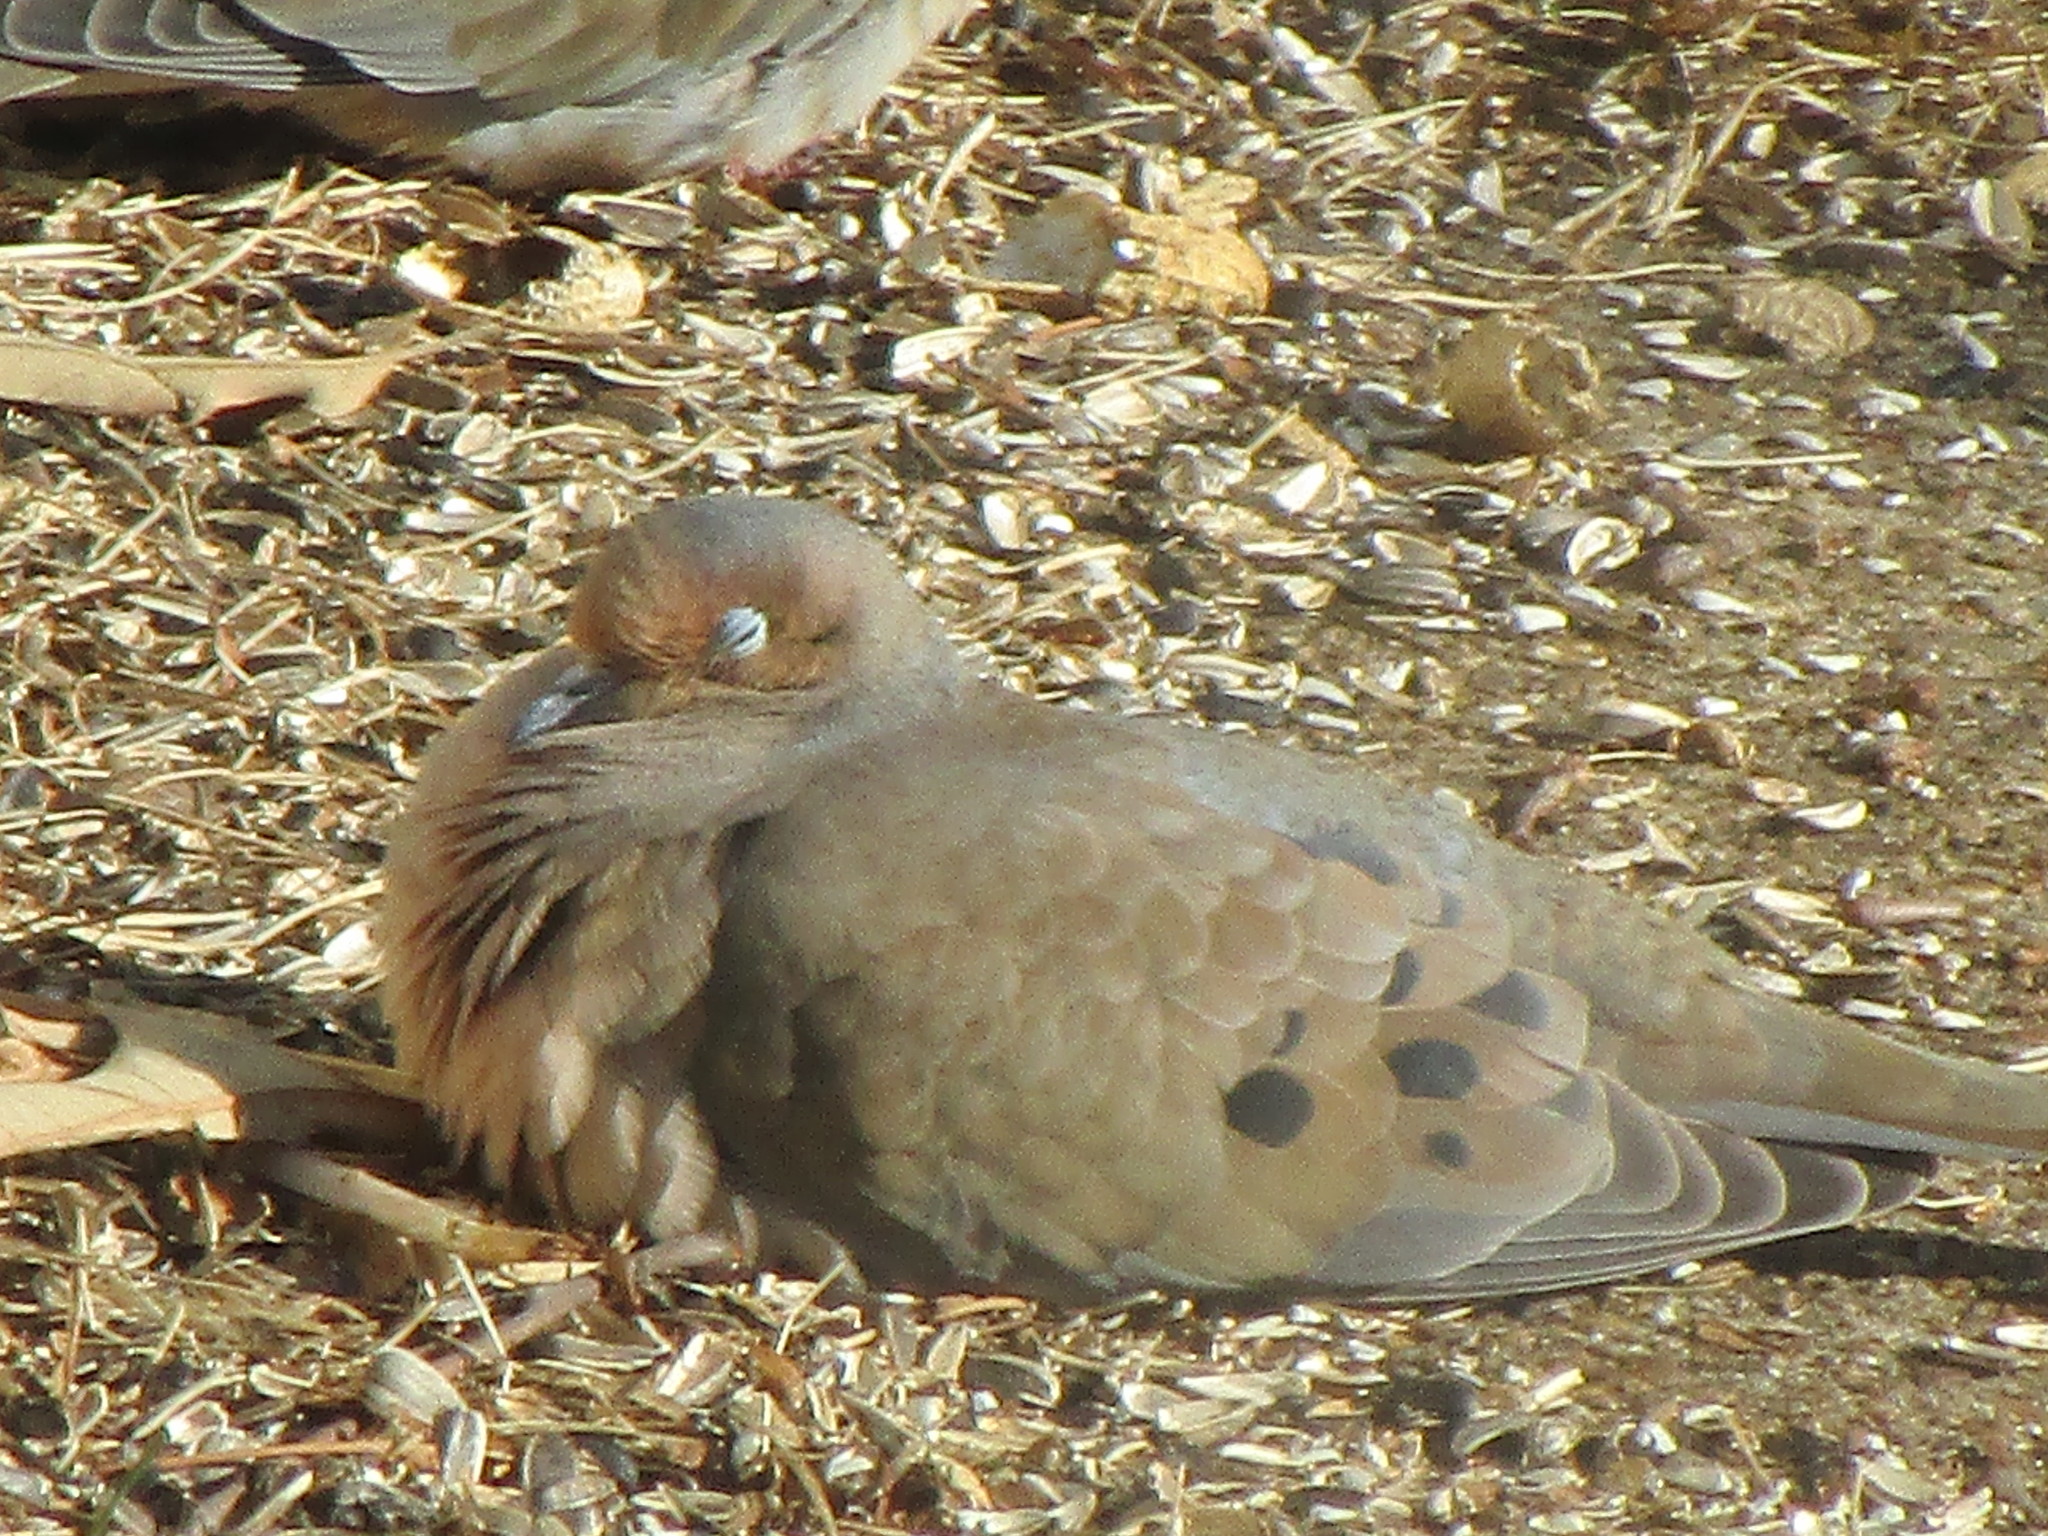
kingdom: Animalia
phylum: Chordata
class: Aves
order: Columbiformes
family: Columbidae
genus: Zenaida
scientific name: Zenaida macroura
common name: Mourning dove
